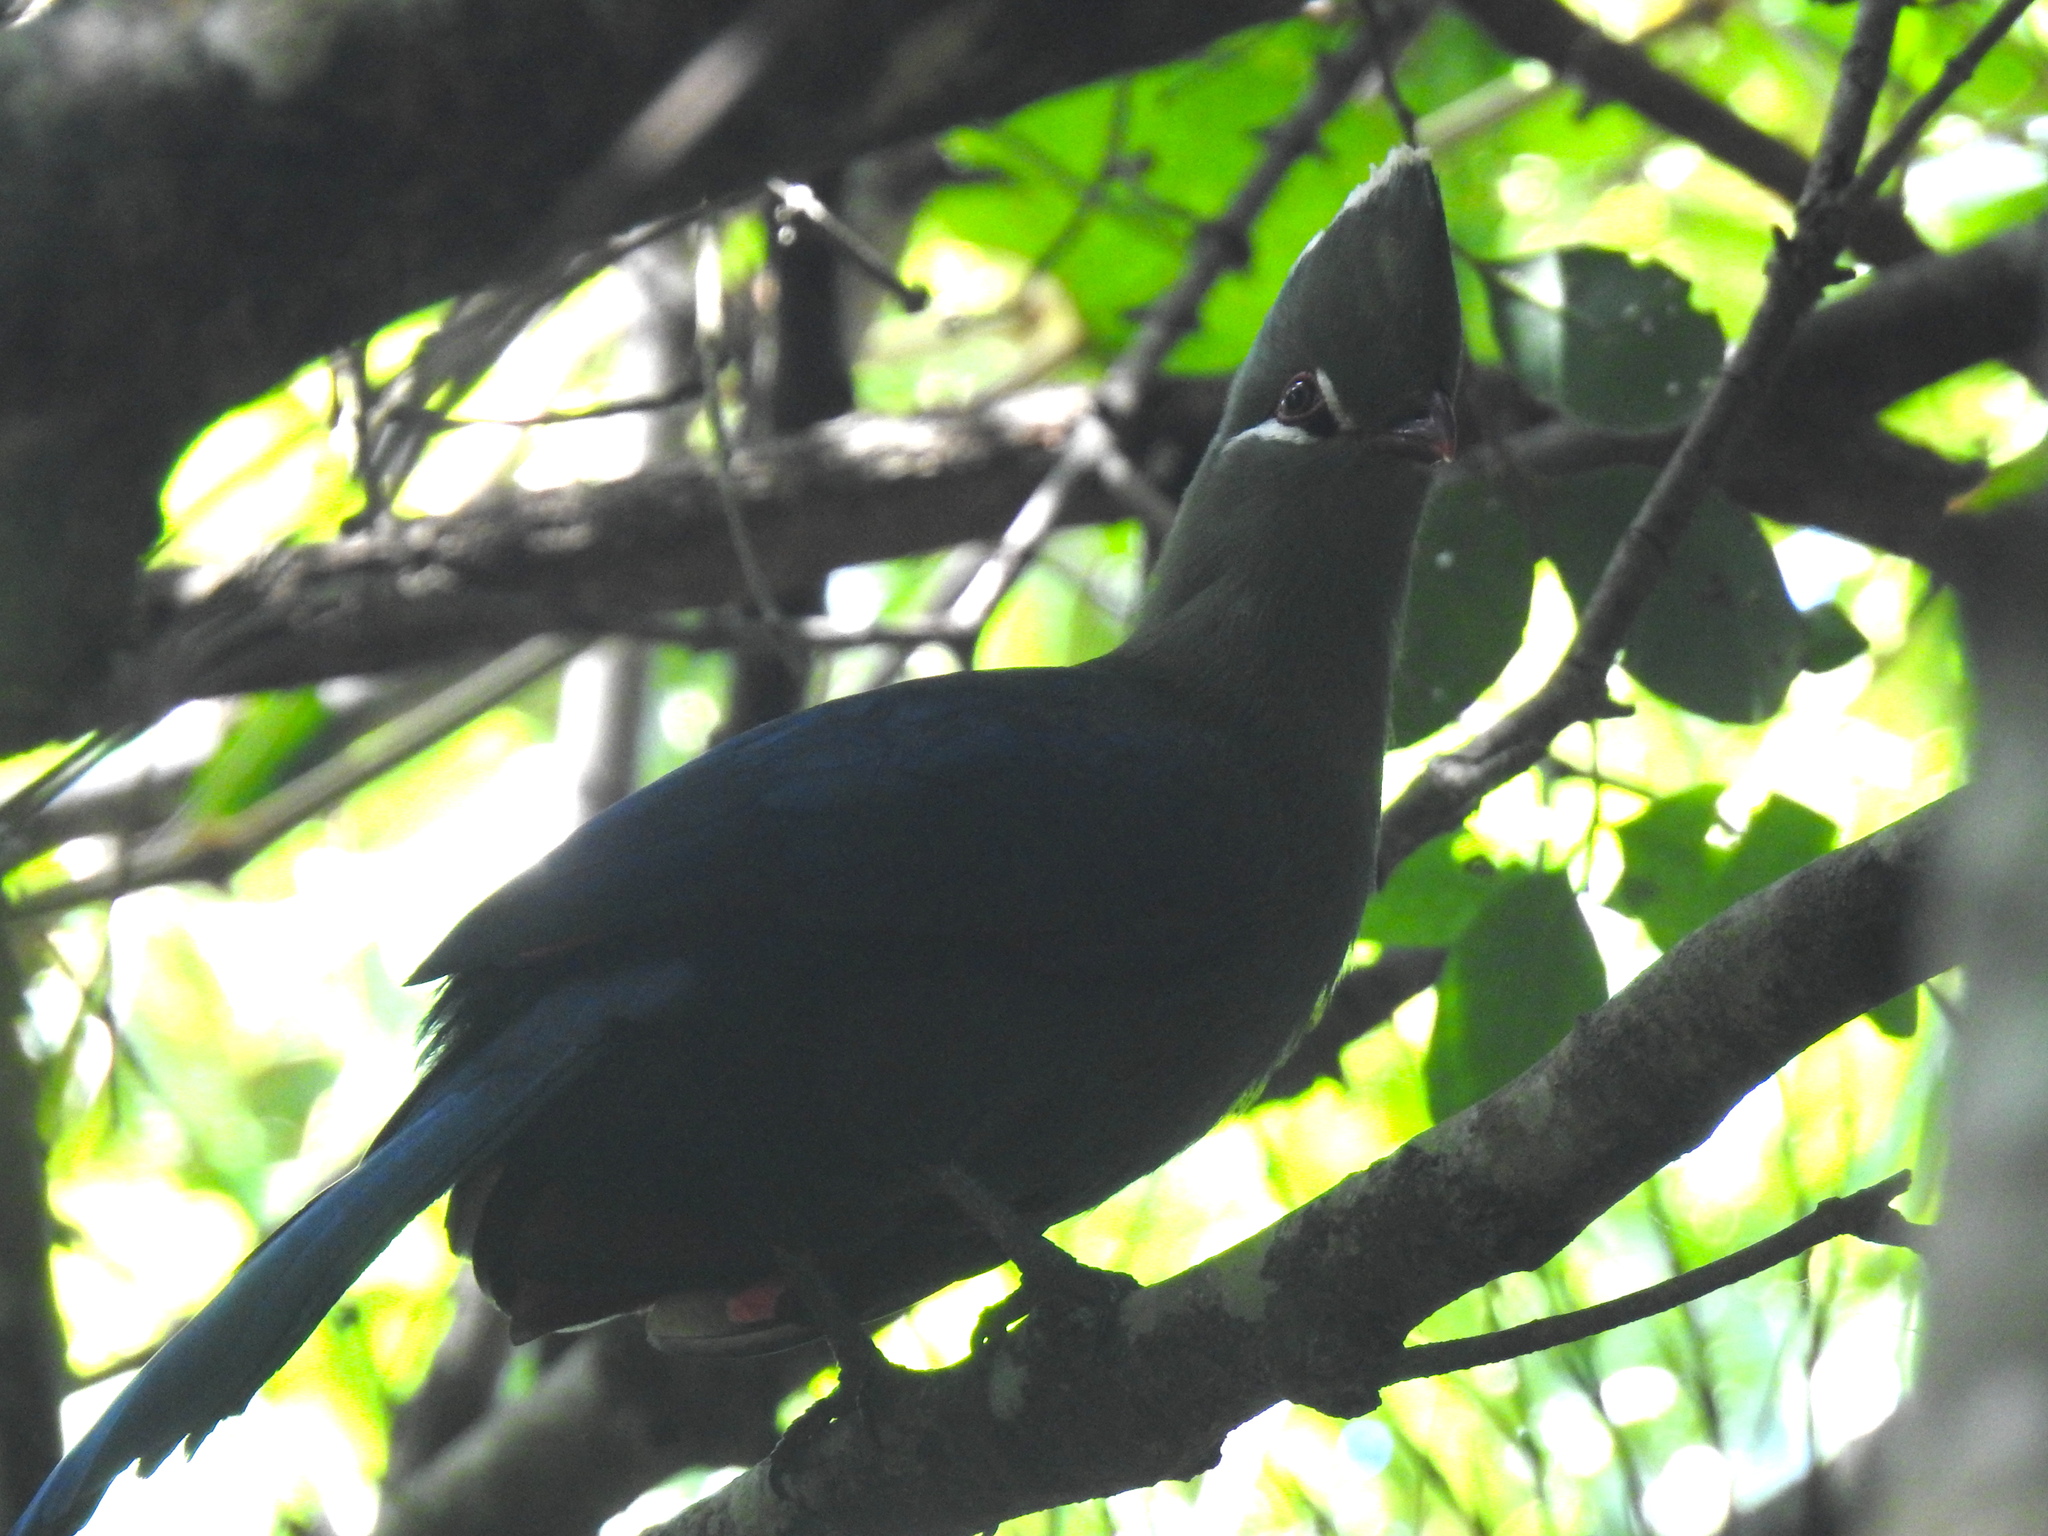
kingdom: Animalia
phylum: Chordata
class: Aves
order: Musophagiformes
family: Musophagidae
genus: Tauraco
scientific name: Tauraco corythaix
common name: Knysna turaco
